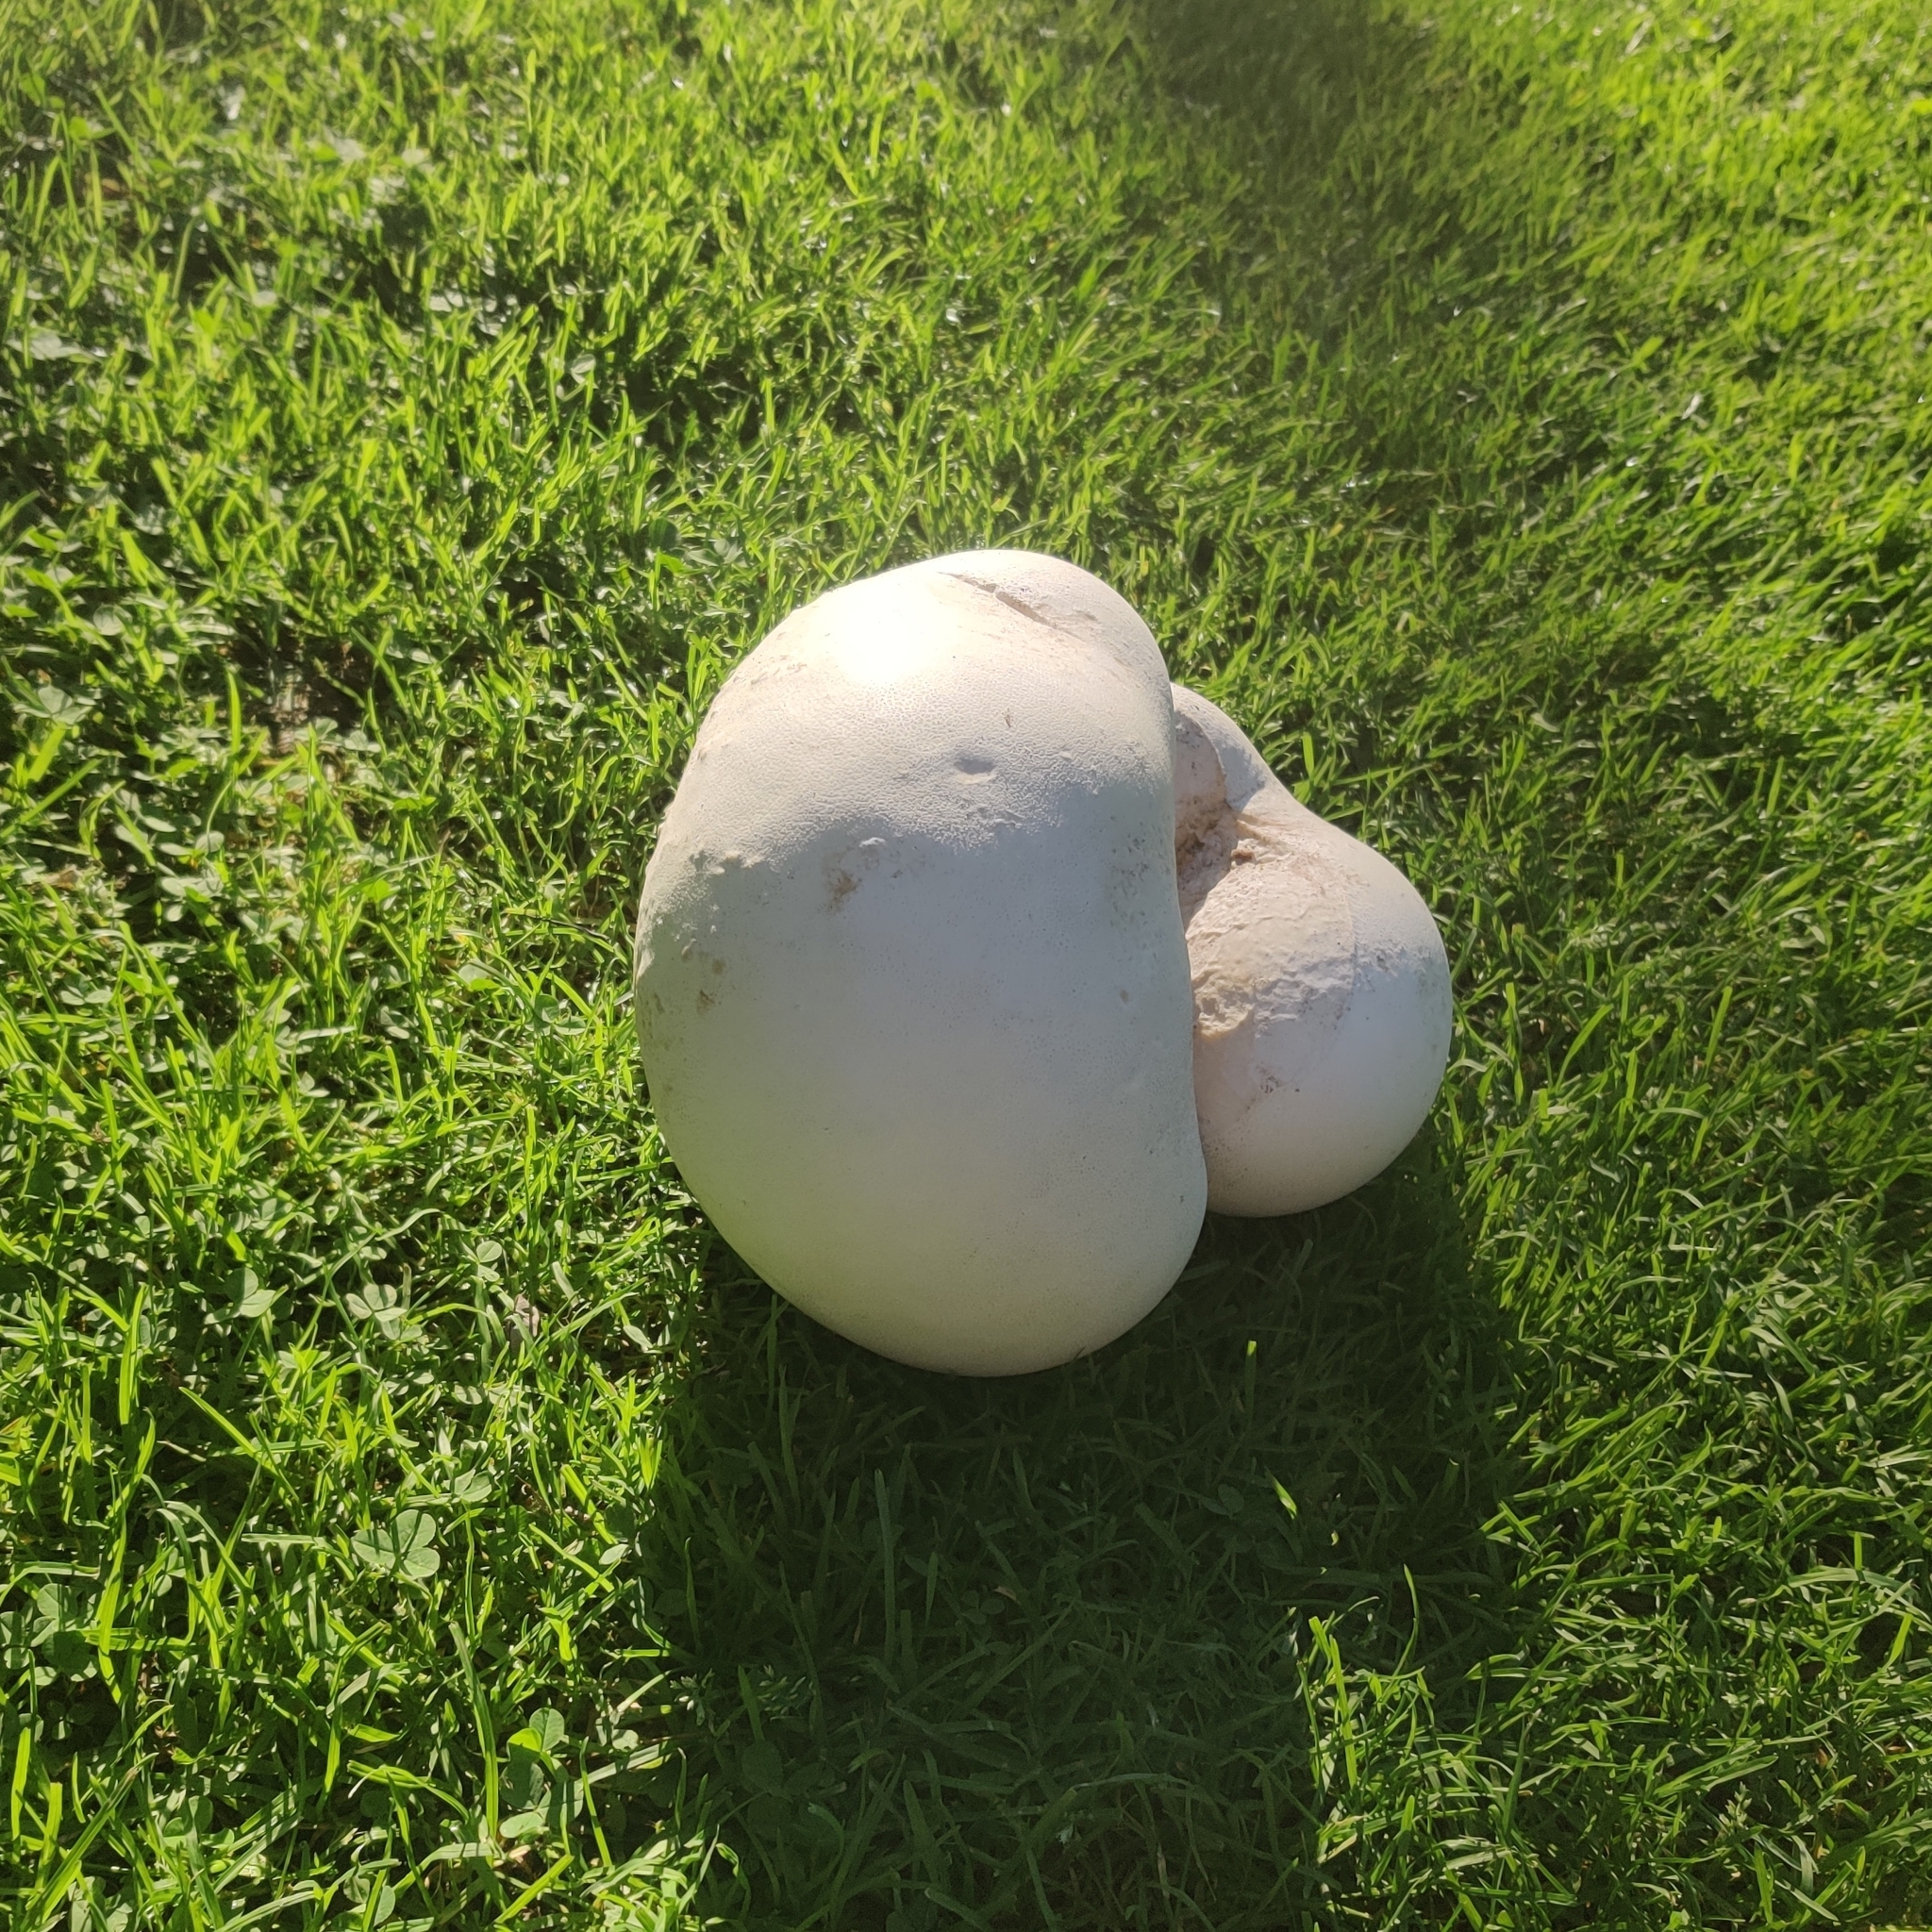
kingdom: Fungi
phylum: Basidiomycota
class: Agaricomycetes
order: Agaricales
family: Lycoperdaceae
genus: Calvatia
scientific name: Calvatia gigantea
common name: Giant puffball
